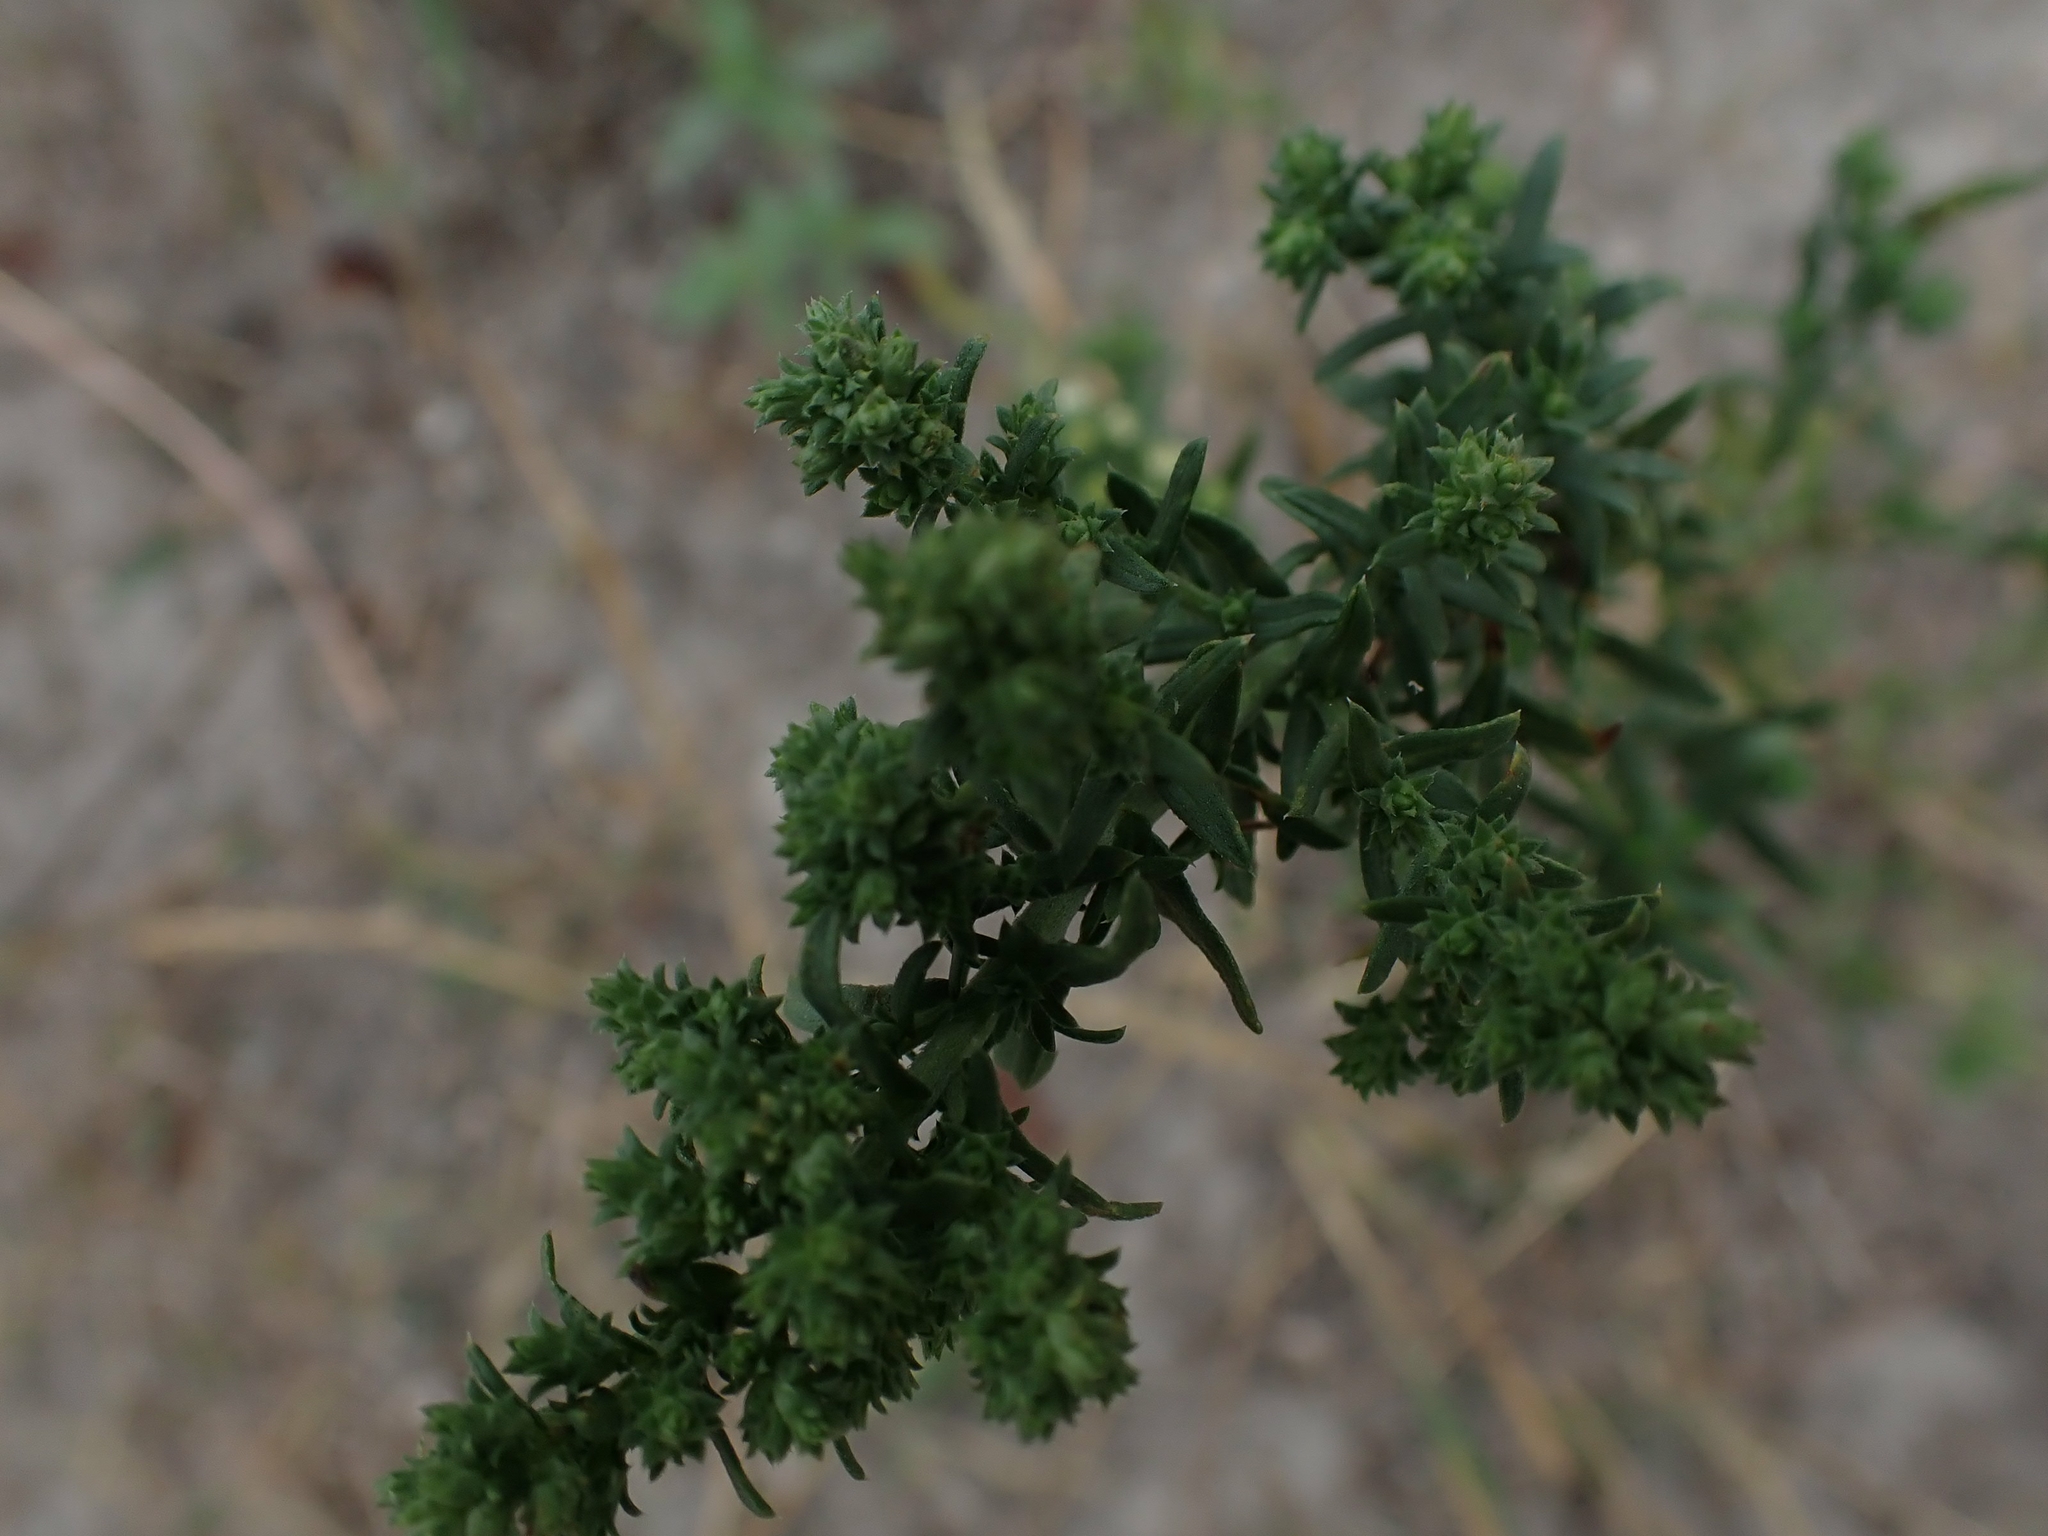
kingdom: Plantae
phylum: Tracheophyta
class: Magnoliopsida
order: Asterales
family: Asteraceae
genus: Symphyotrichum
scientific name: Symphyotrichum ericoides
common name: Heath aster
